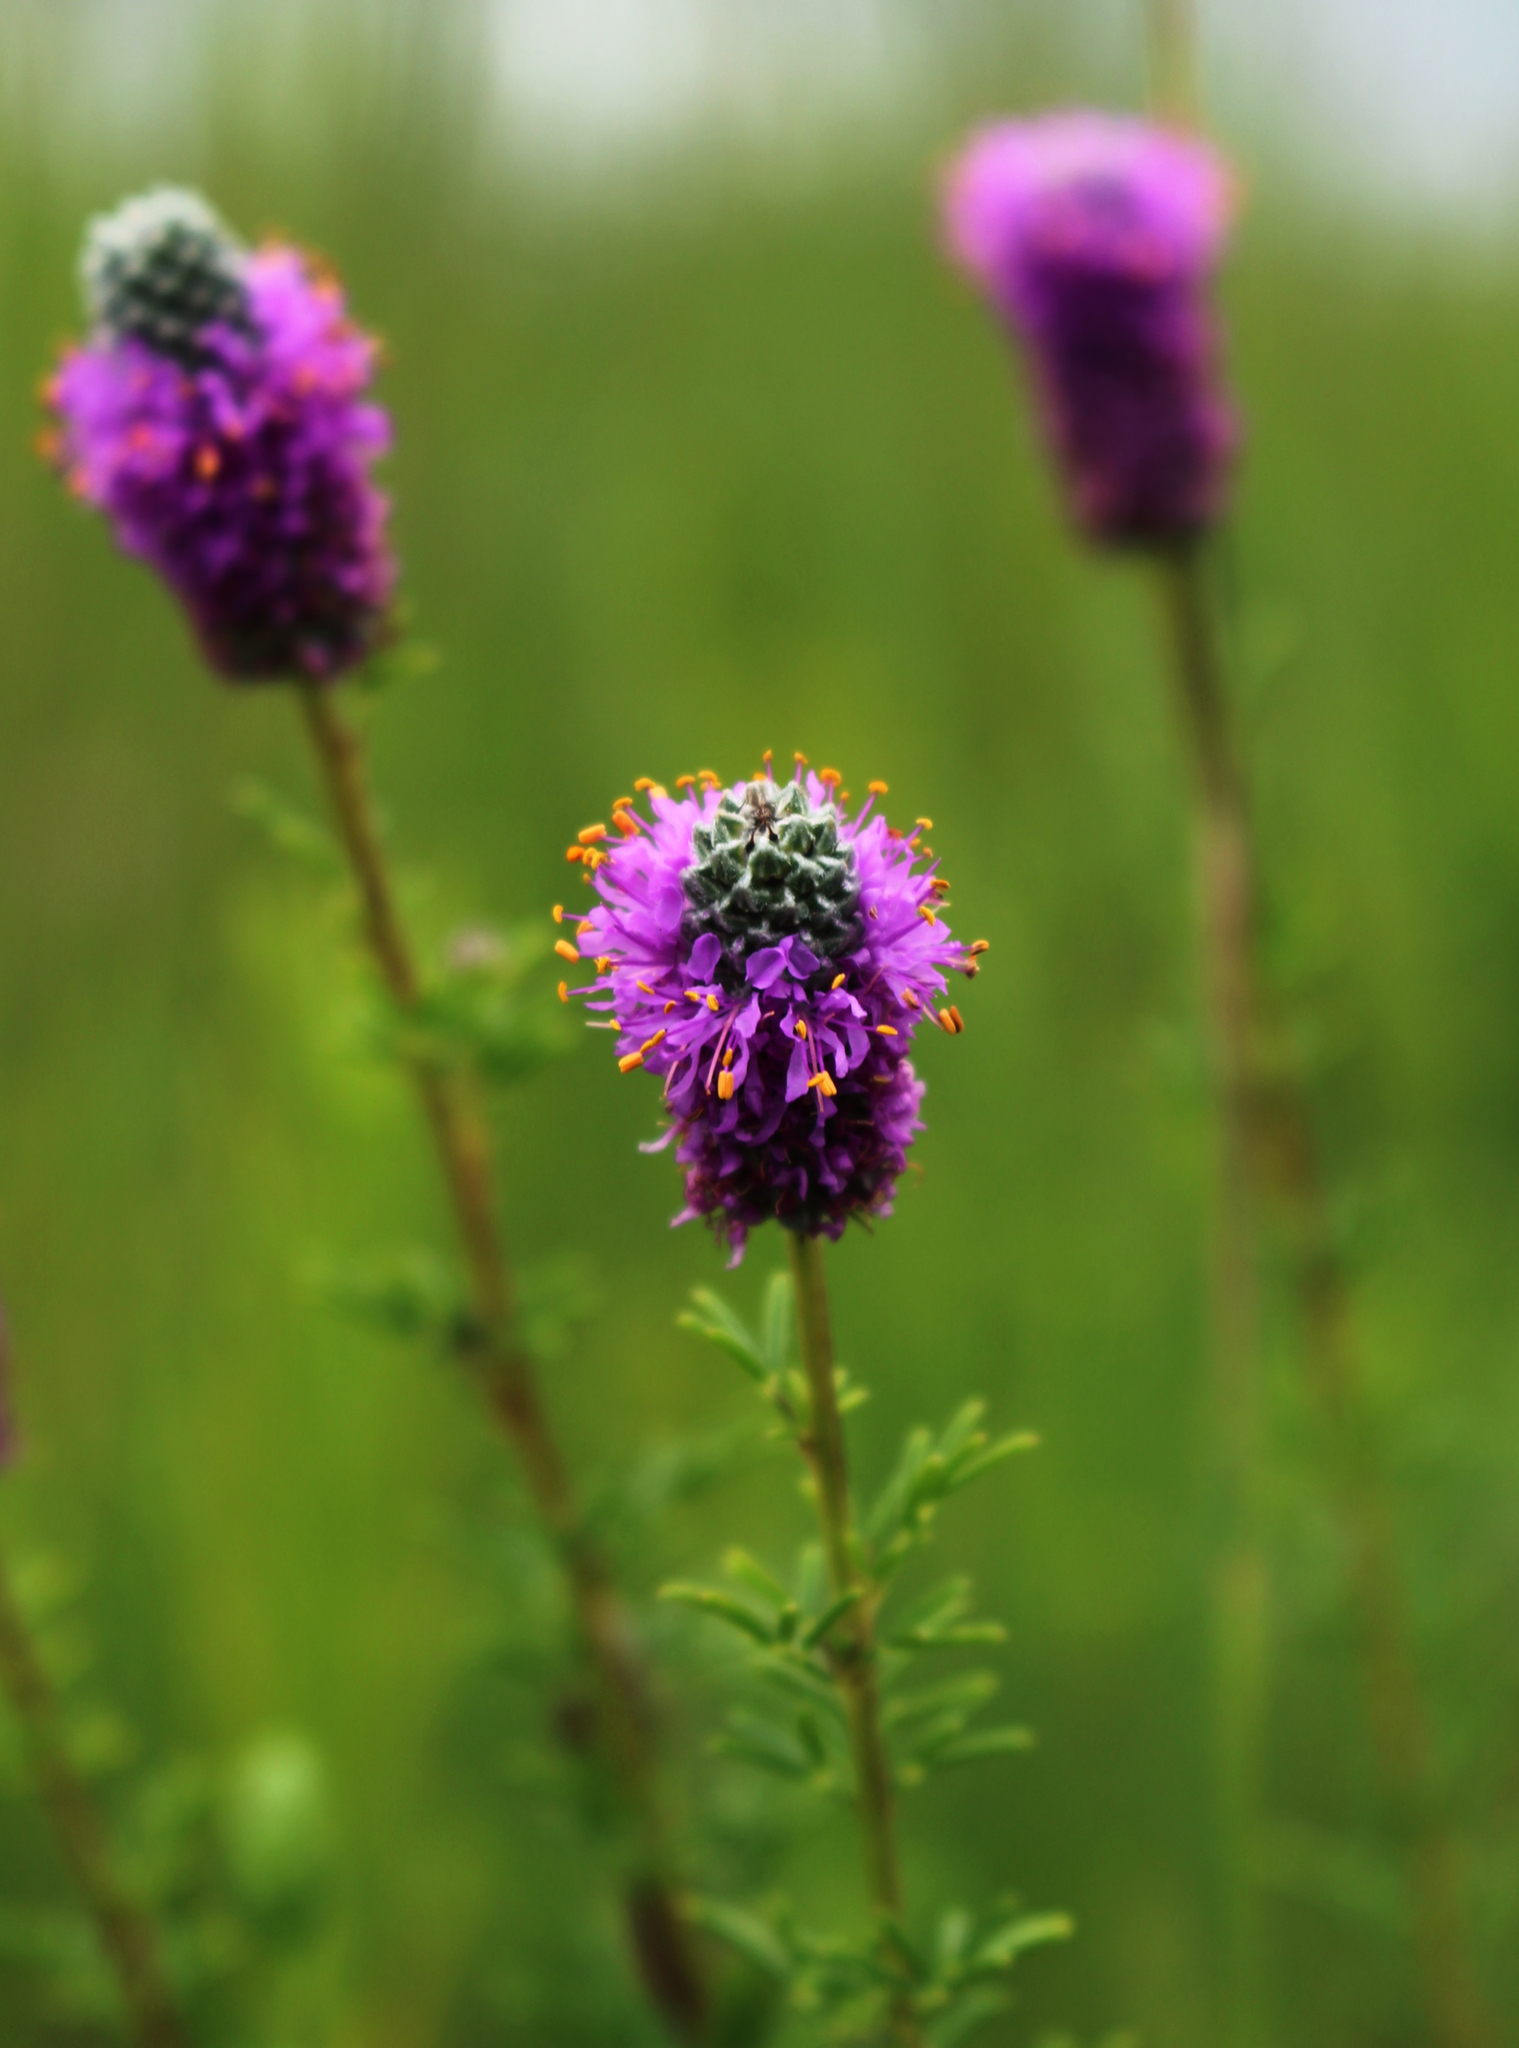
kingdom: Plantae
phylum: Tracheophyta
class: Magnoliopsida
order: Fabales
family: Fabaceae
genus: Dalea
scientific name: Dalea purpurea
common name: Purple prairie-clover
